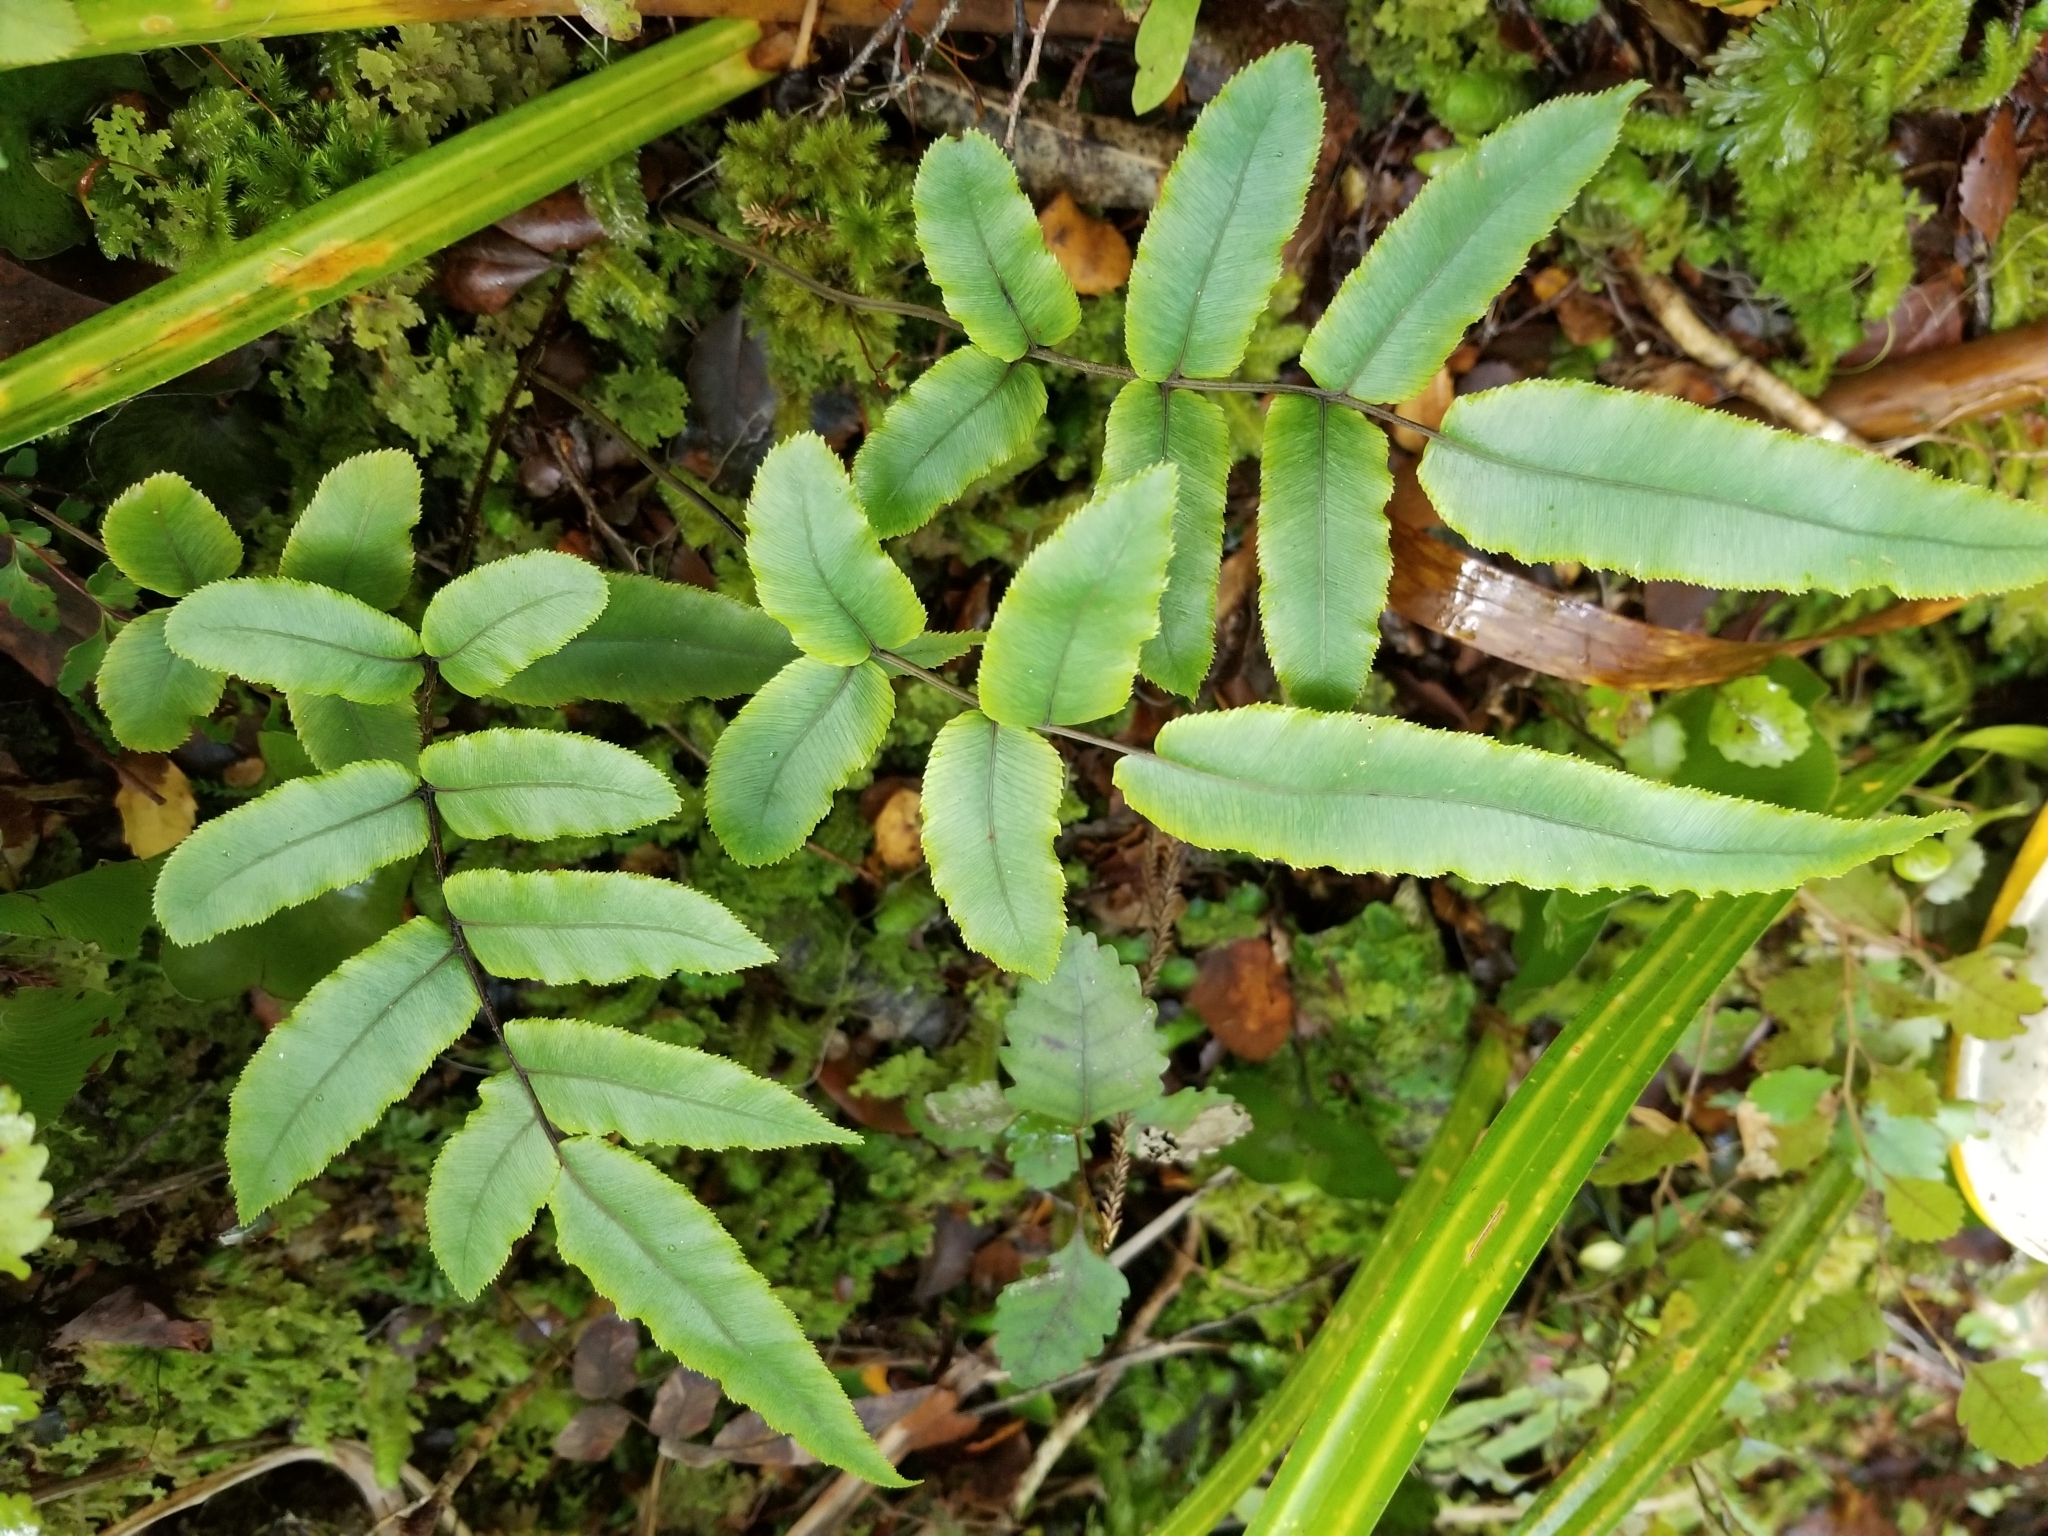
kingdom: Plantae
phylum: Tracheophyta
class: Polypodiopsida
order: Polypodiales
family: Blechnaceae
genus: Parablechnum
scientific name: Parablechnum procerum
